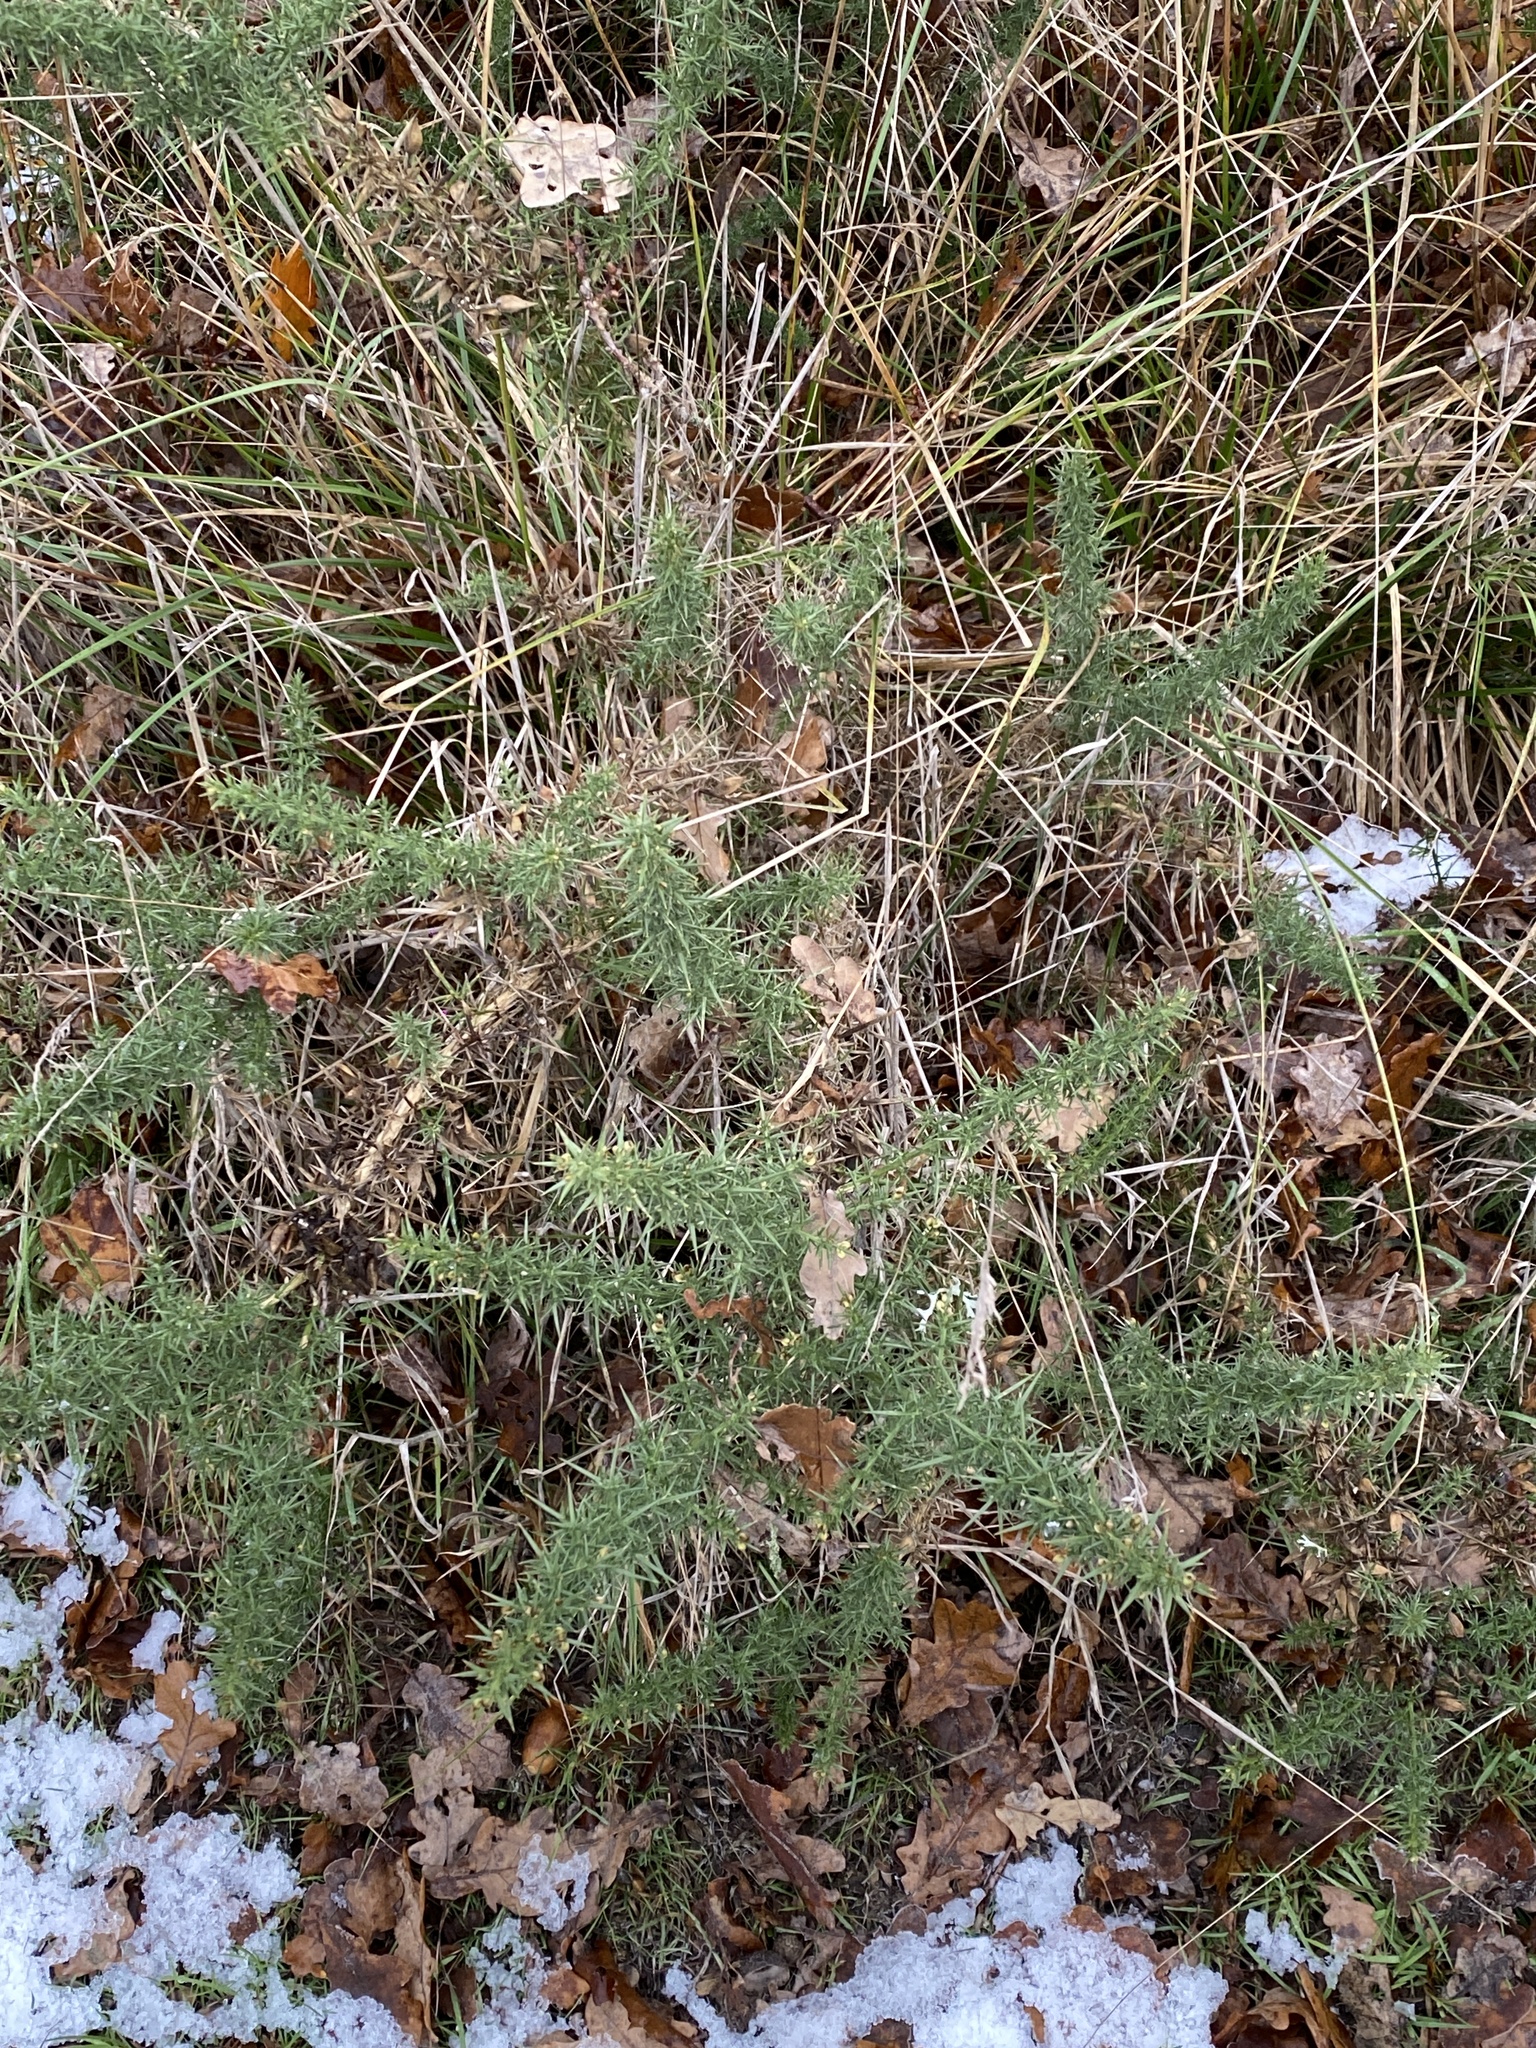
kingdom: Plantae
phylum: Tracheophyta
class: Magnoliopsida
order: Fabales
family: Fabaceae
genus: Ulex
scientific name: Ulex europaeus
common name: Common gorse
